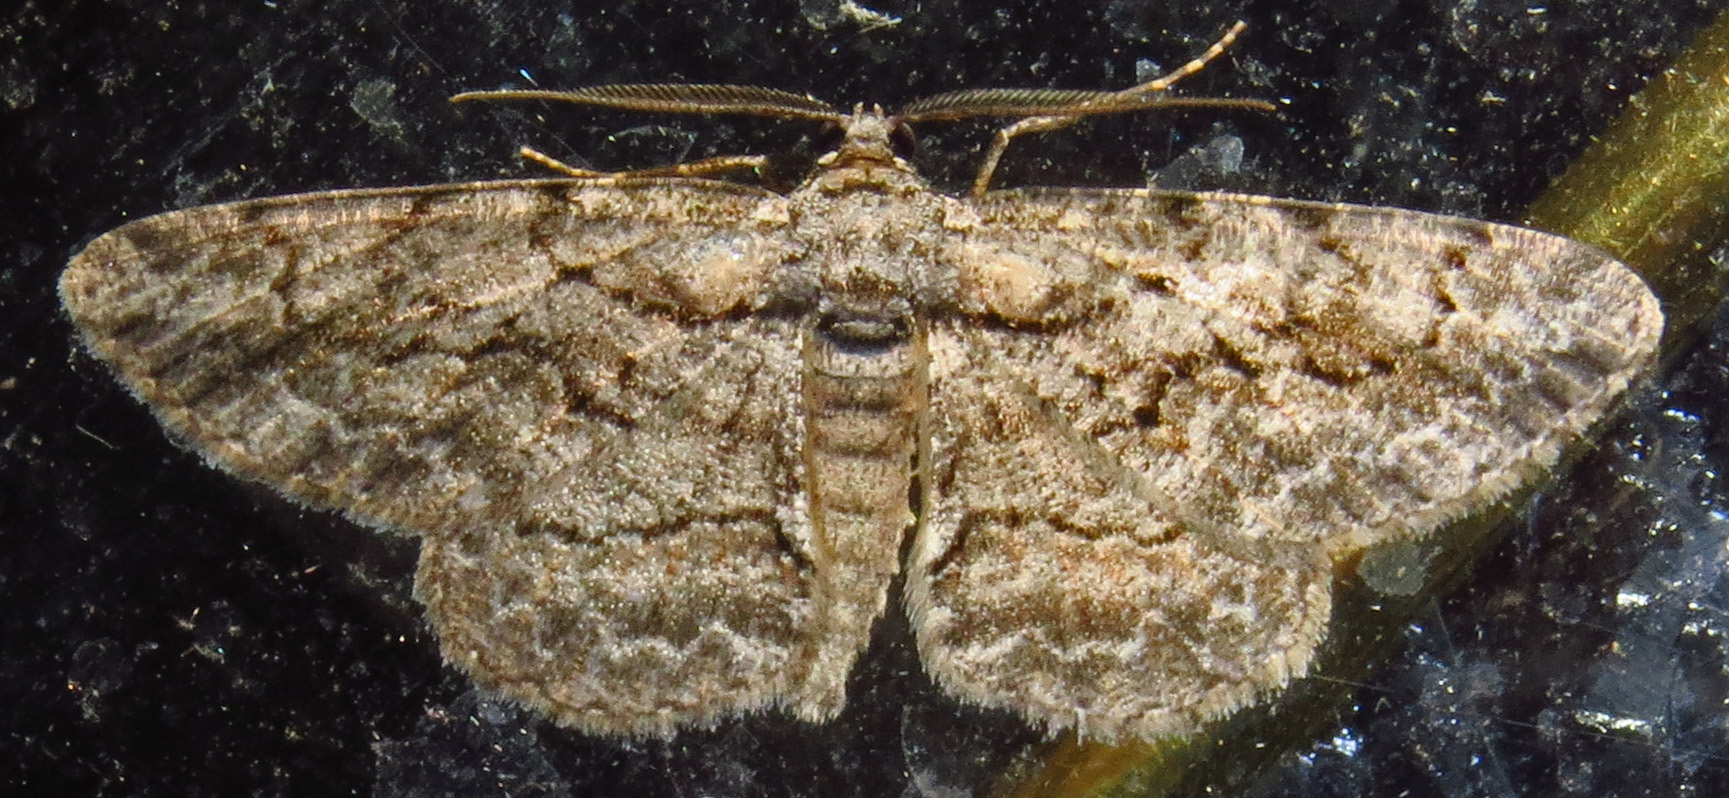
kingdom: Animalia
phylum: Arthropoda
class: Insecta
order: Lepidoptera
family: Geometridae
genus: Anavitrinella
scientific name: Anavitrinella pampinaria
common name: Common gray
